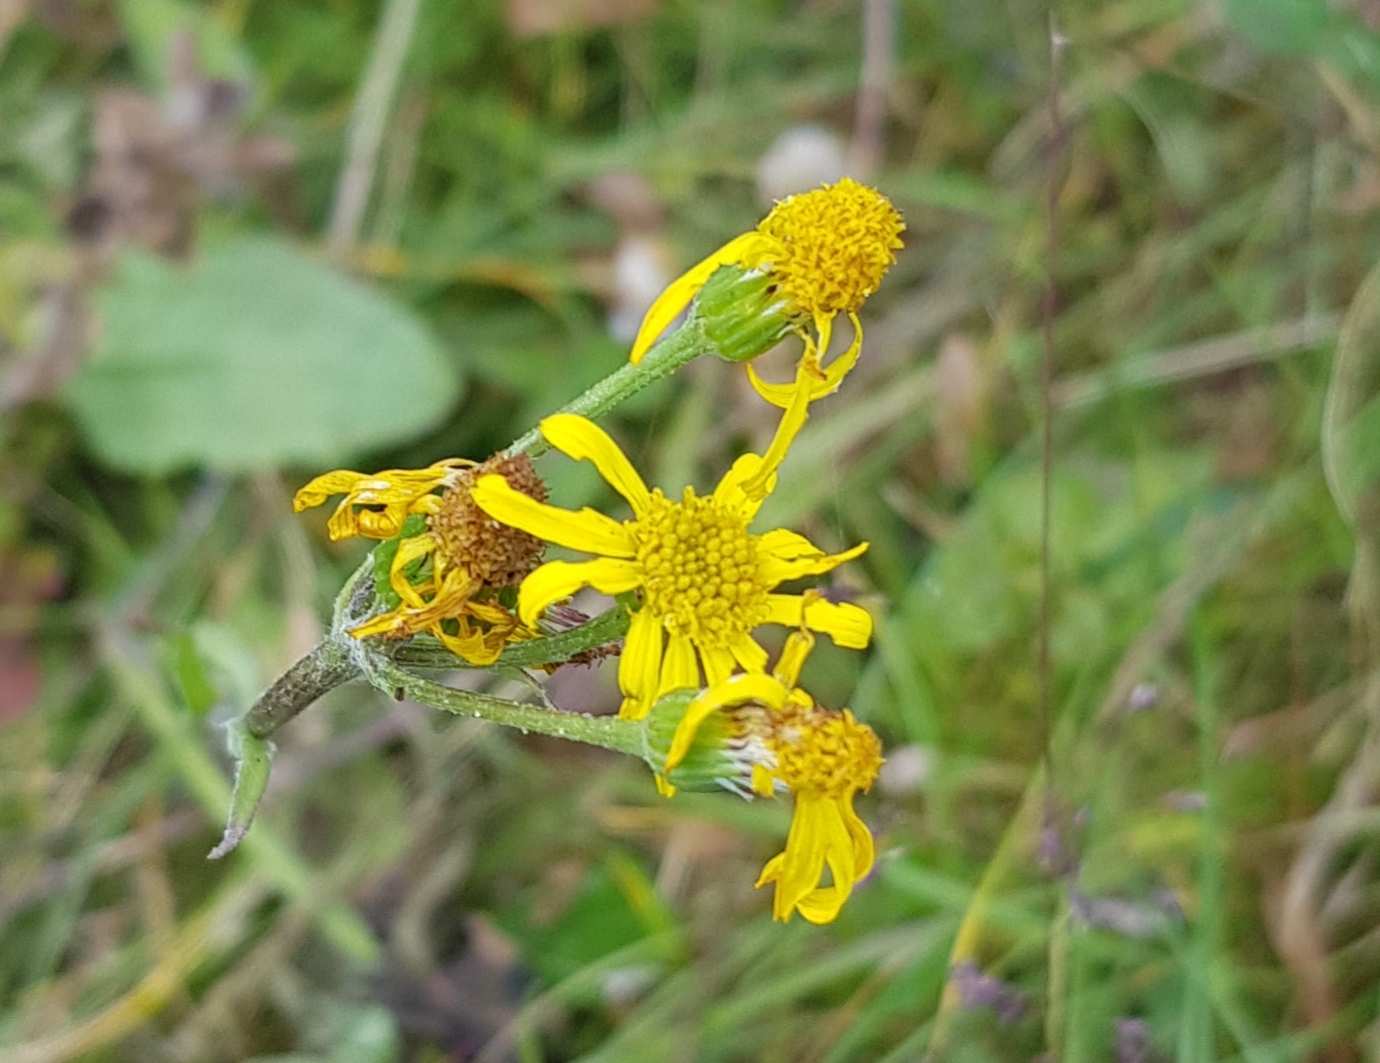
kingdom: Plantae
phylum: Tracheophyta
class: Magnoliopsida
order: Asterales
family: Asteraceae
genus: Tephroseris
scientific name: Tephroseris integrifolia
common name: Field fleawort
